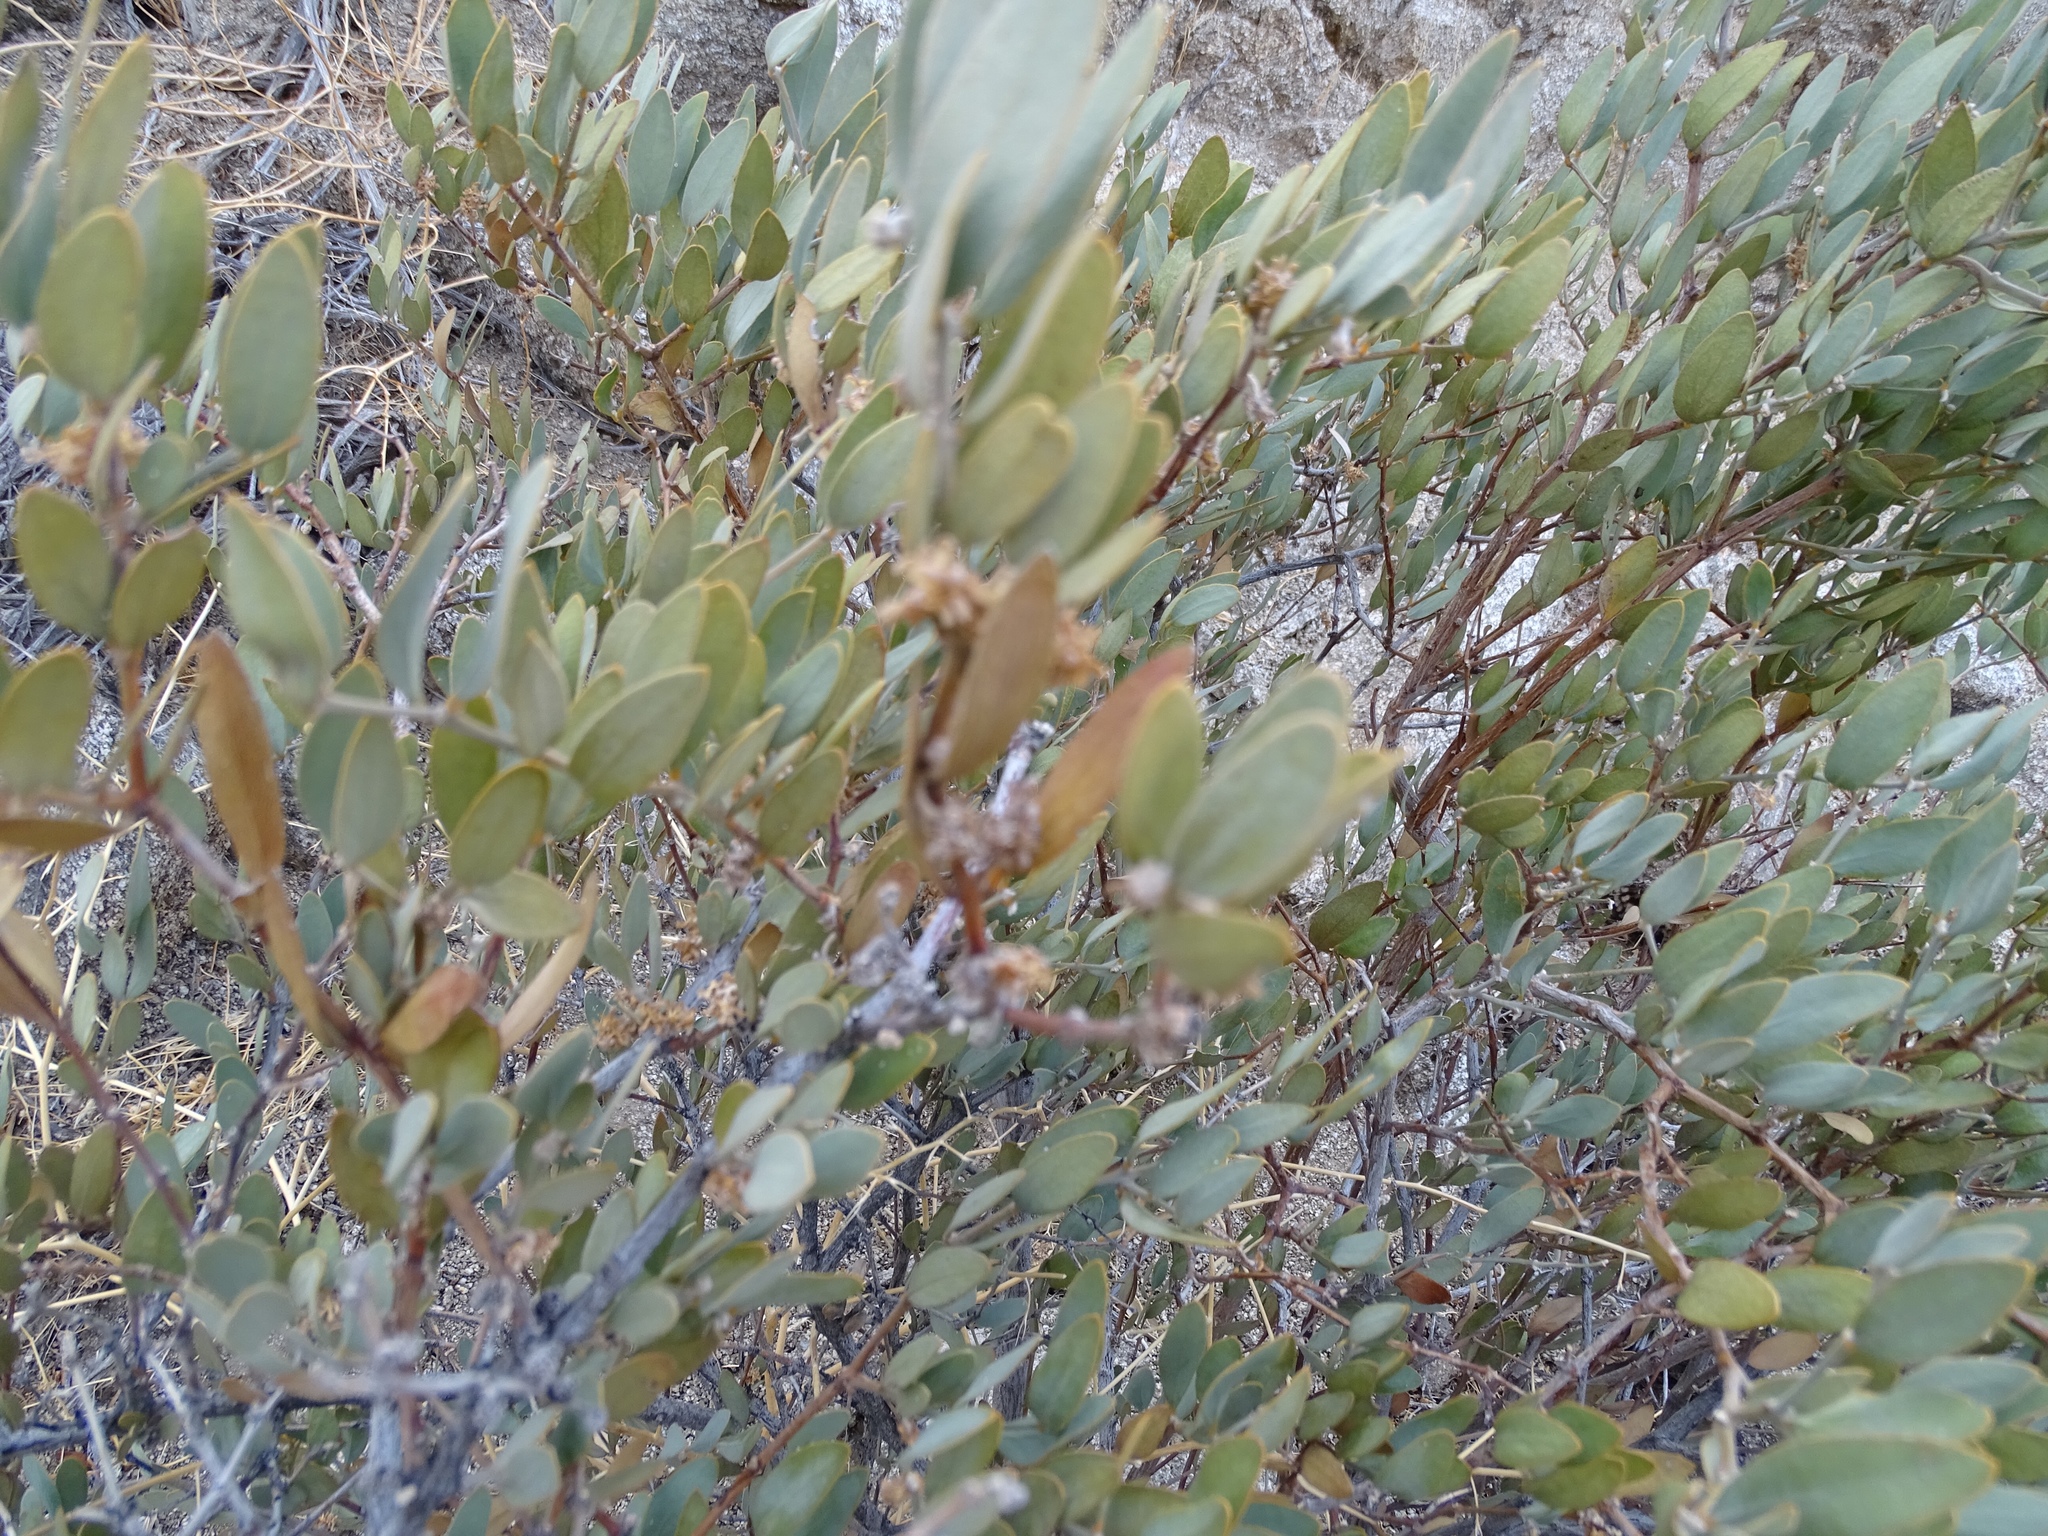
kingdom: Plantae
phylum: Tracheophyta
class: Magnoliopsida
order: Caryophyllales
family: Simmondsiaceae
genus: Simmondsia
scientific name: Simmondsia chinensis
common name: Jojoba
